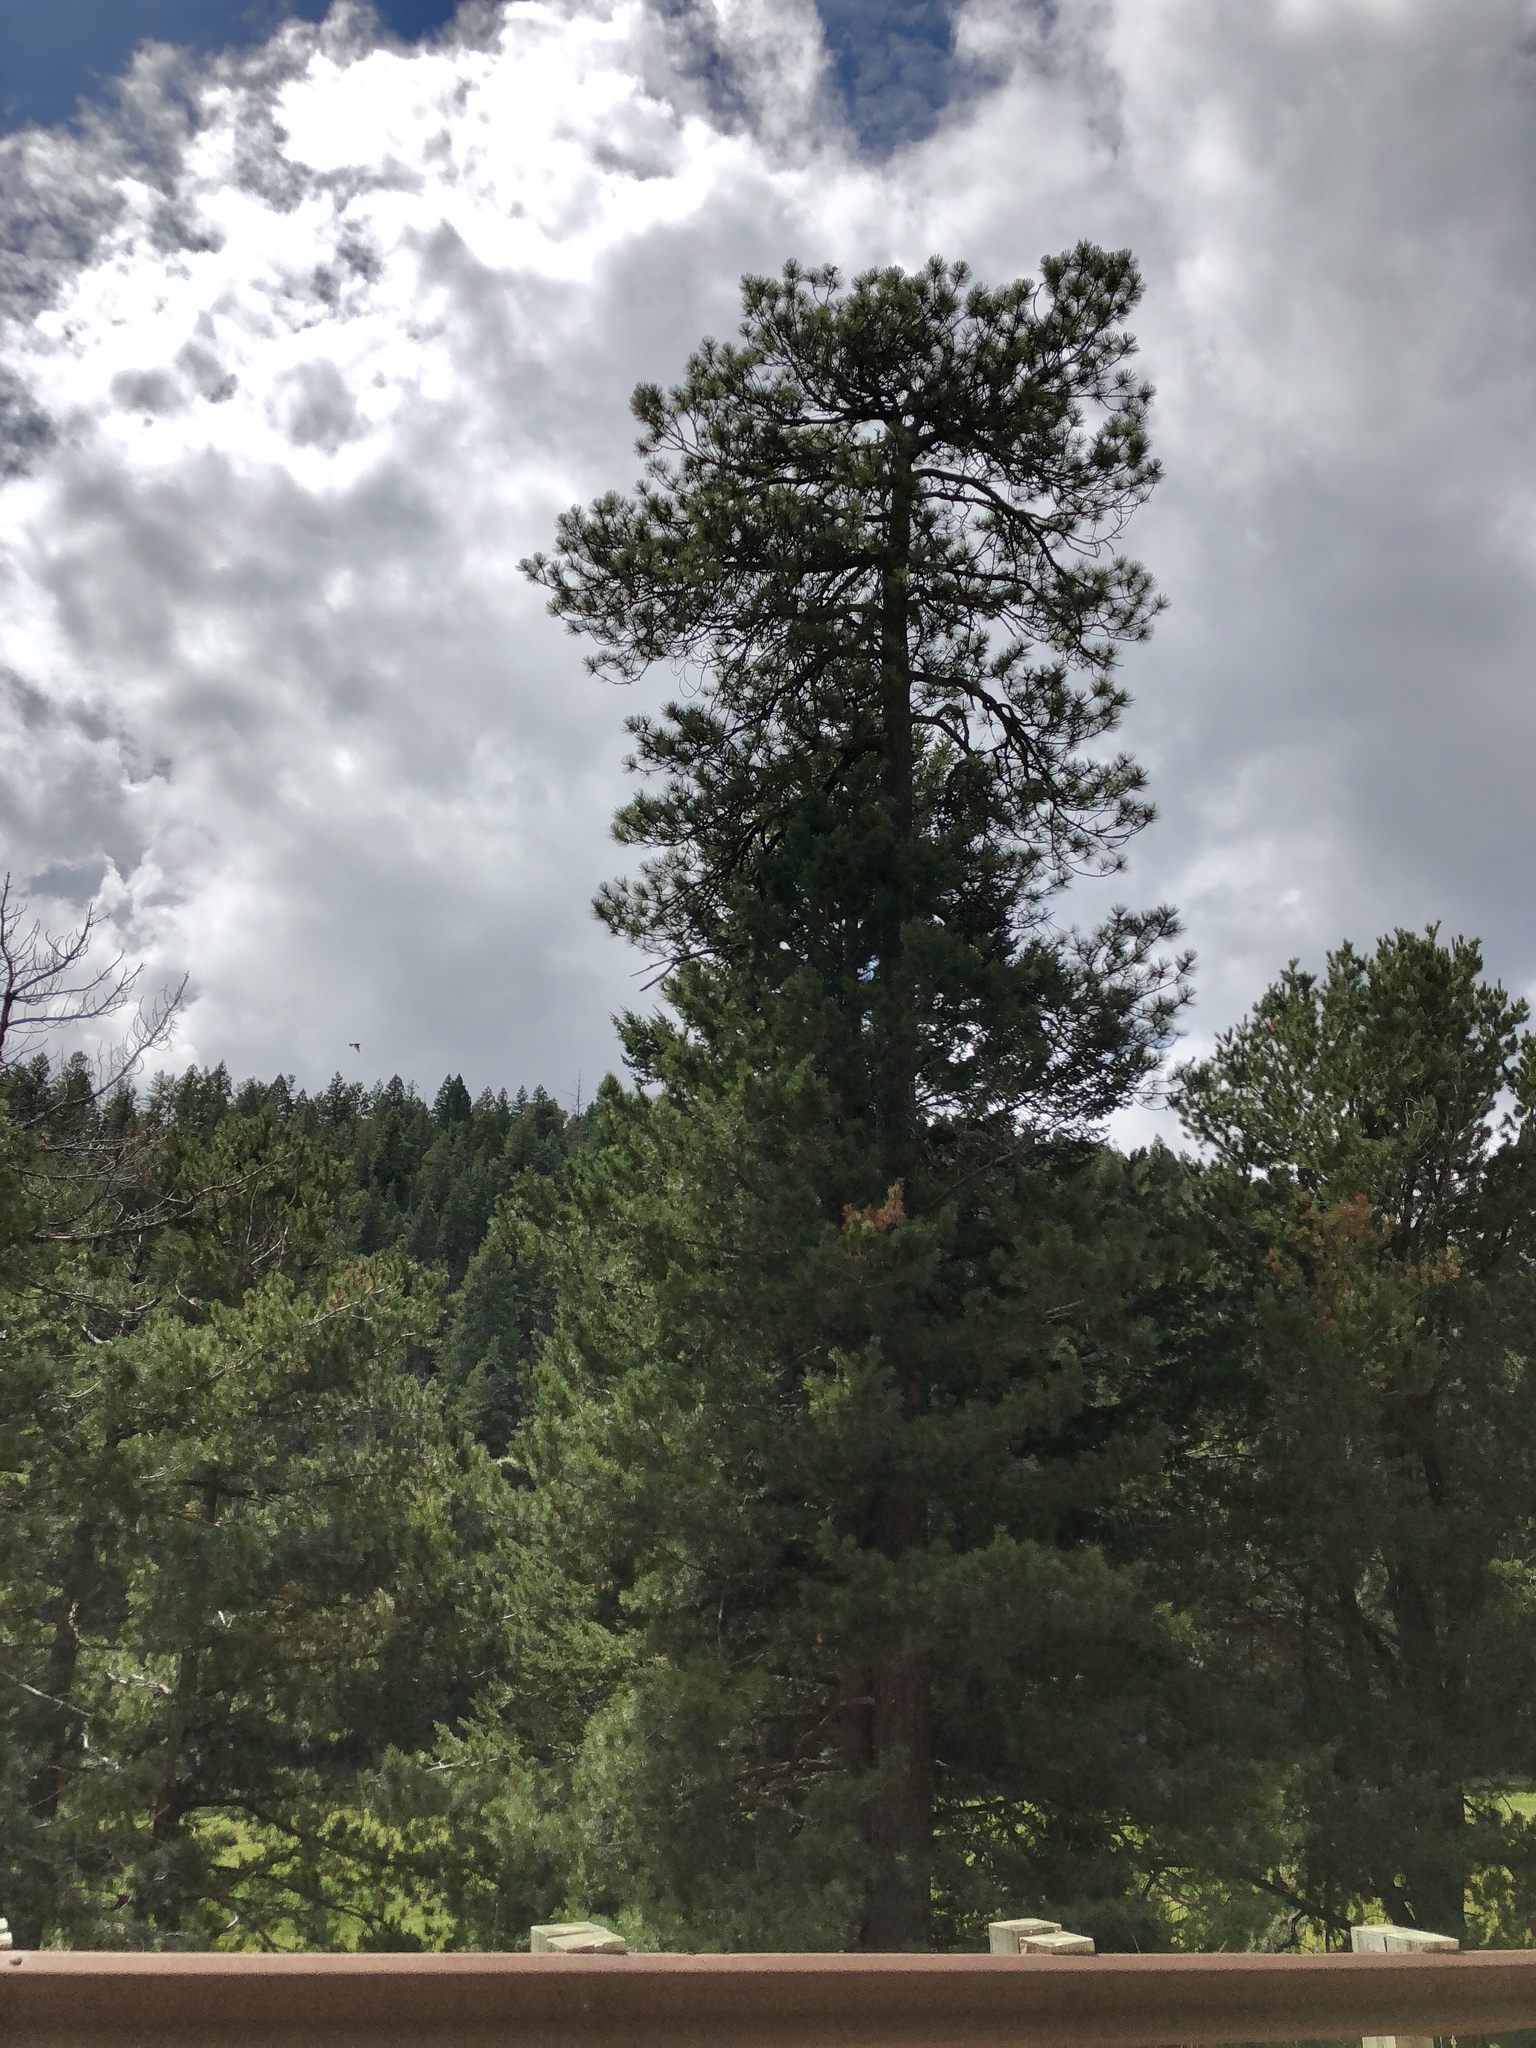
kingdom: Plantae
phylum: Tracheophyta
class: Pinopsida
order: Pinales
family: Pinaceae
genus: Pinus
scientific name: Pinus ponderosa
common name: Western yellow-pine
